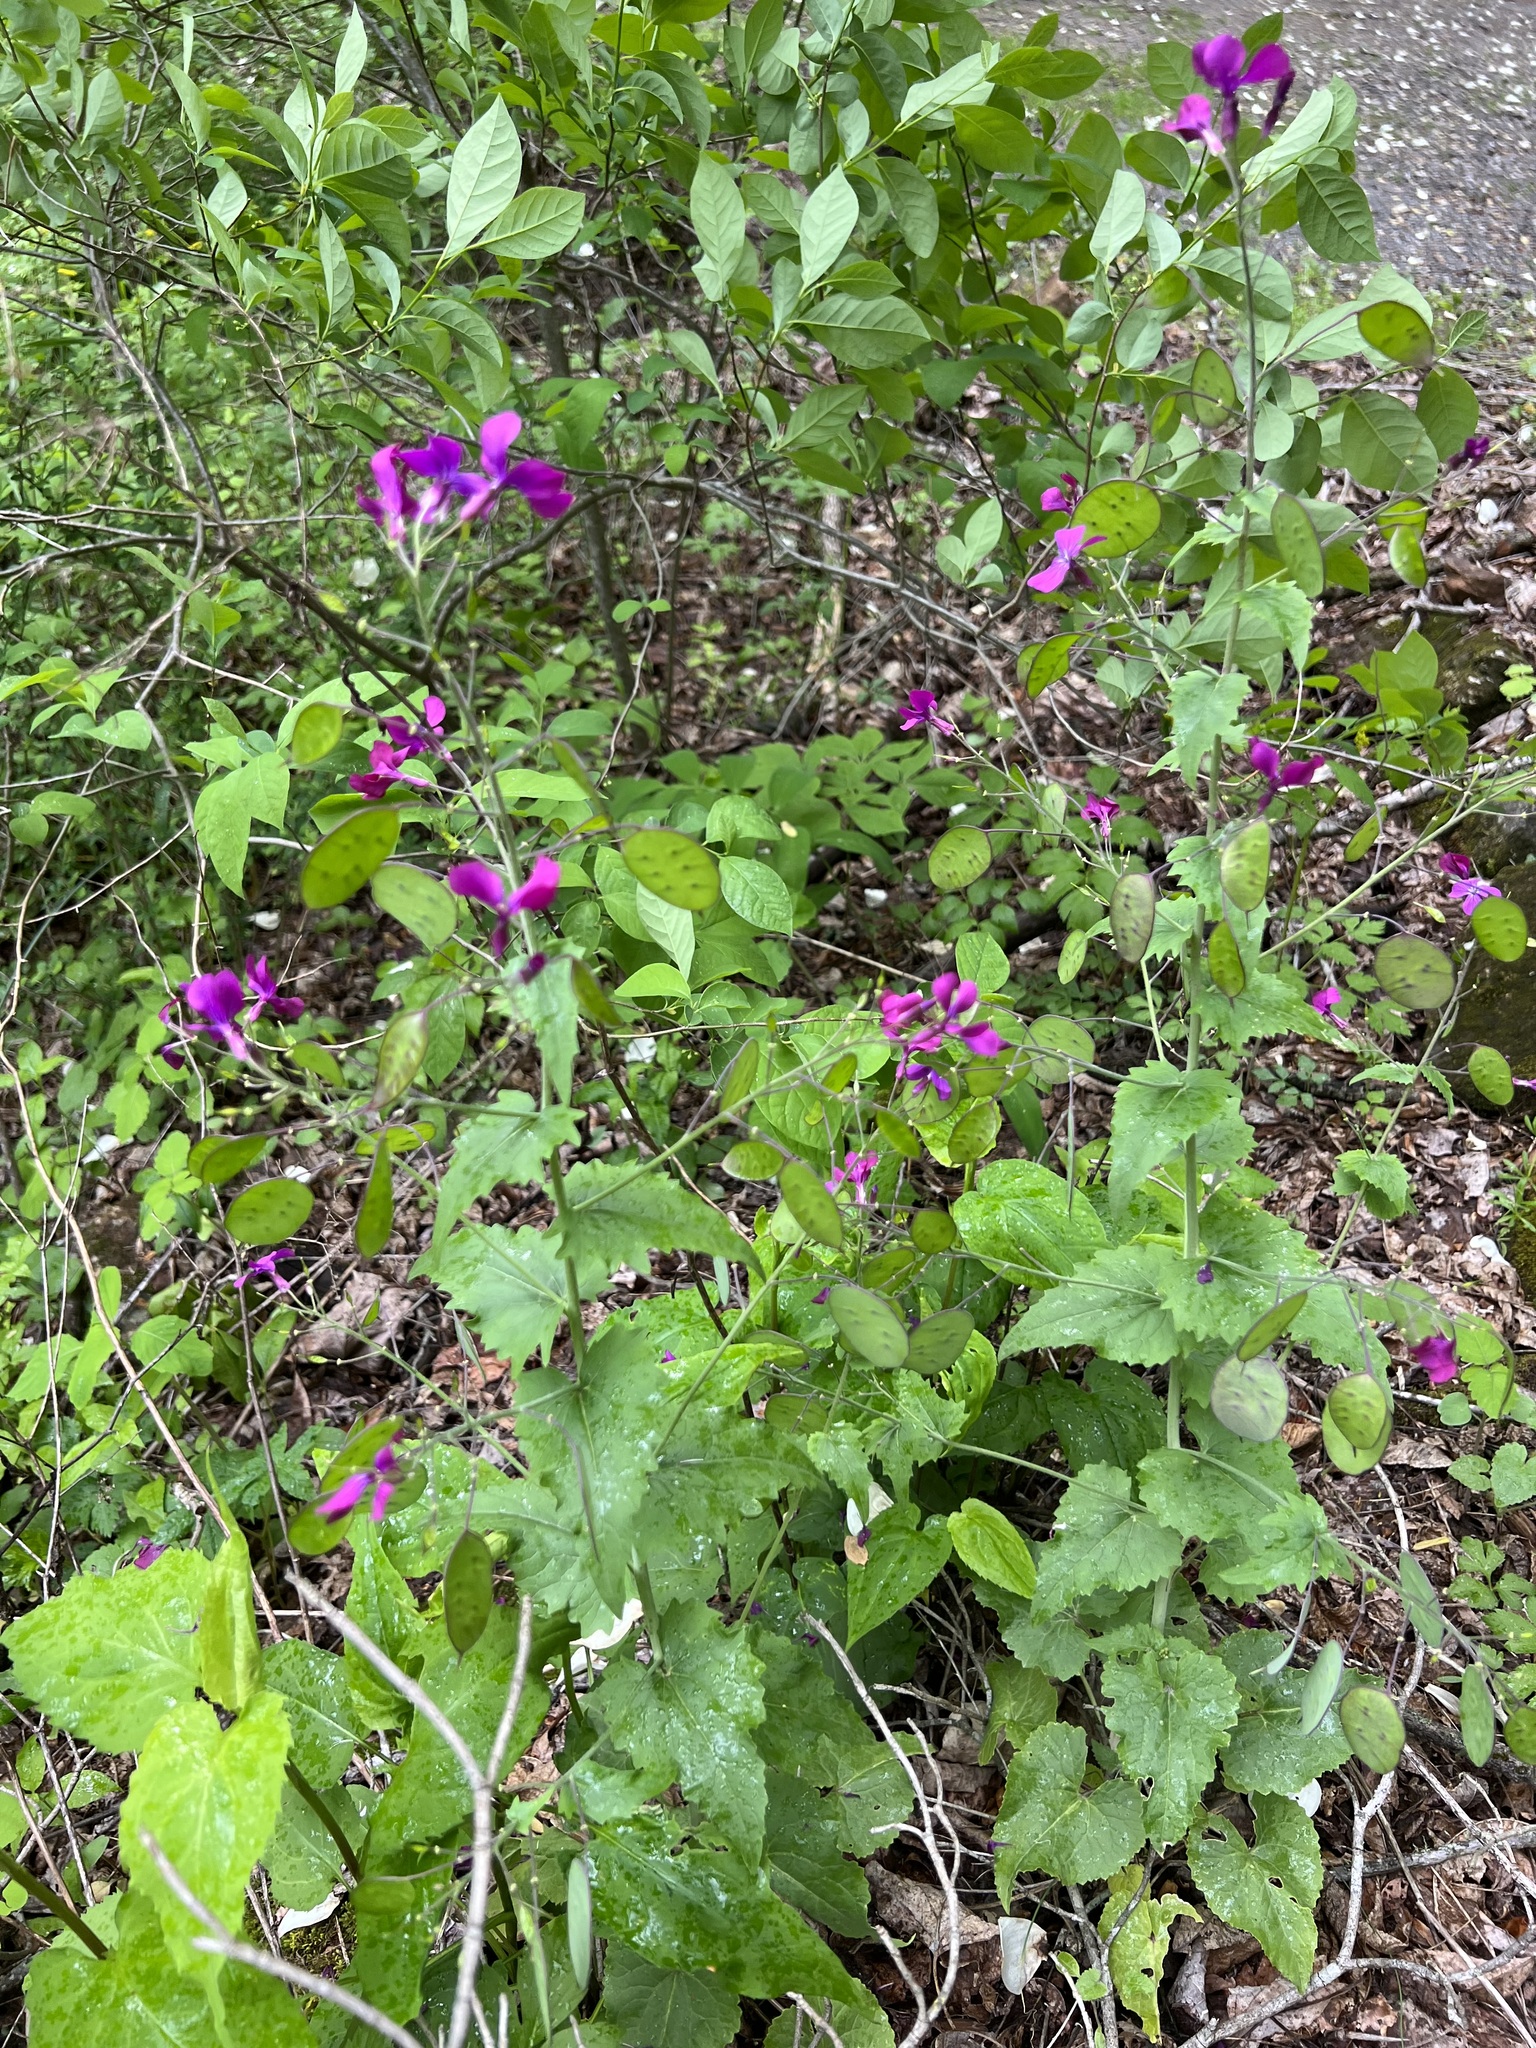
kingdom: Plantae
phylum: Tracheophyta
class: Magnoliopsida
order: Brassicales
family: Brassicaceae
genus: Lunaria
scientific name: Lunaria annua
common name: Honesty
